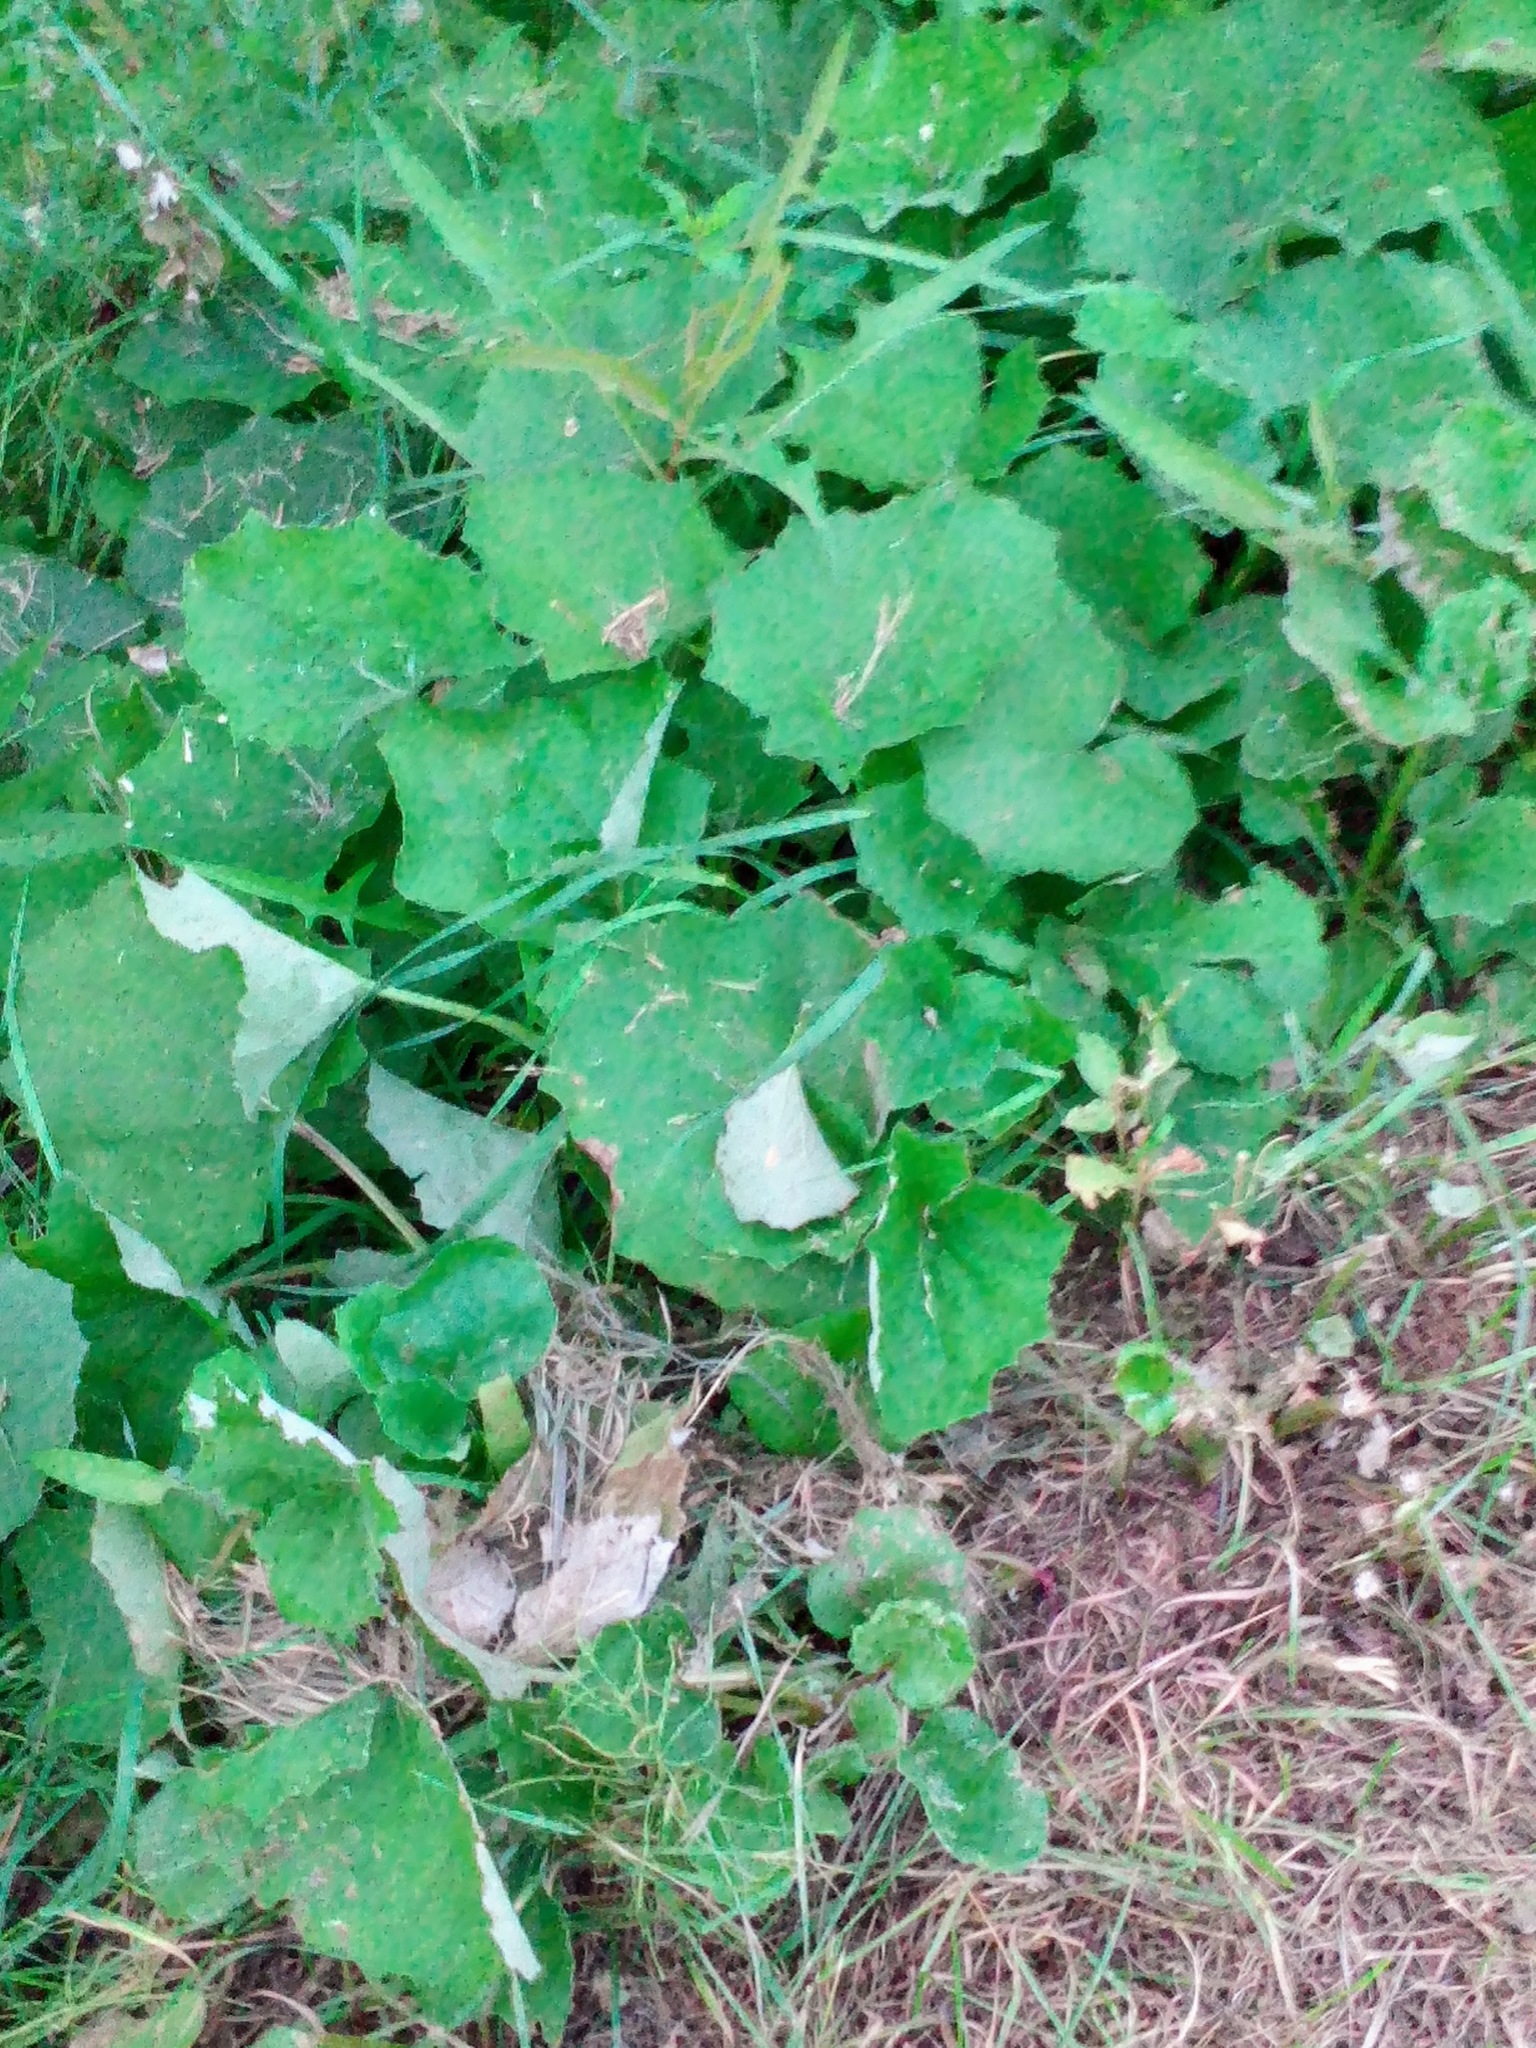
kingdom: Plantae
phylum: Tracheophyta
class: Magnoliopsida
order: Asterales
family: Asteraceae
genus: Tussilago
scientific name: Tussilago farfara
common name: Coltsfoot
